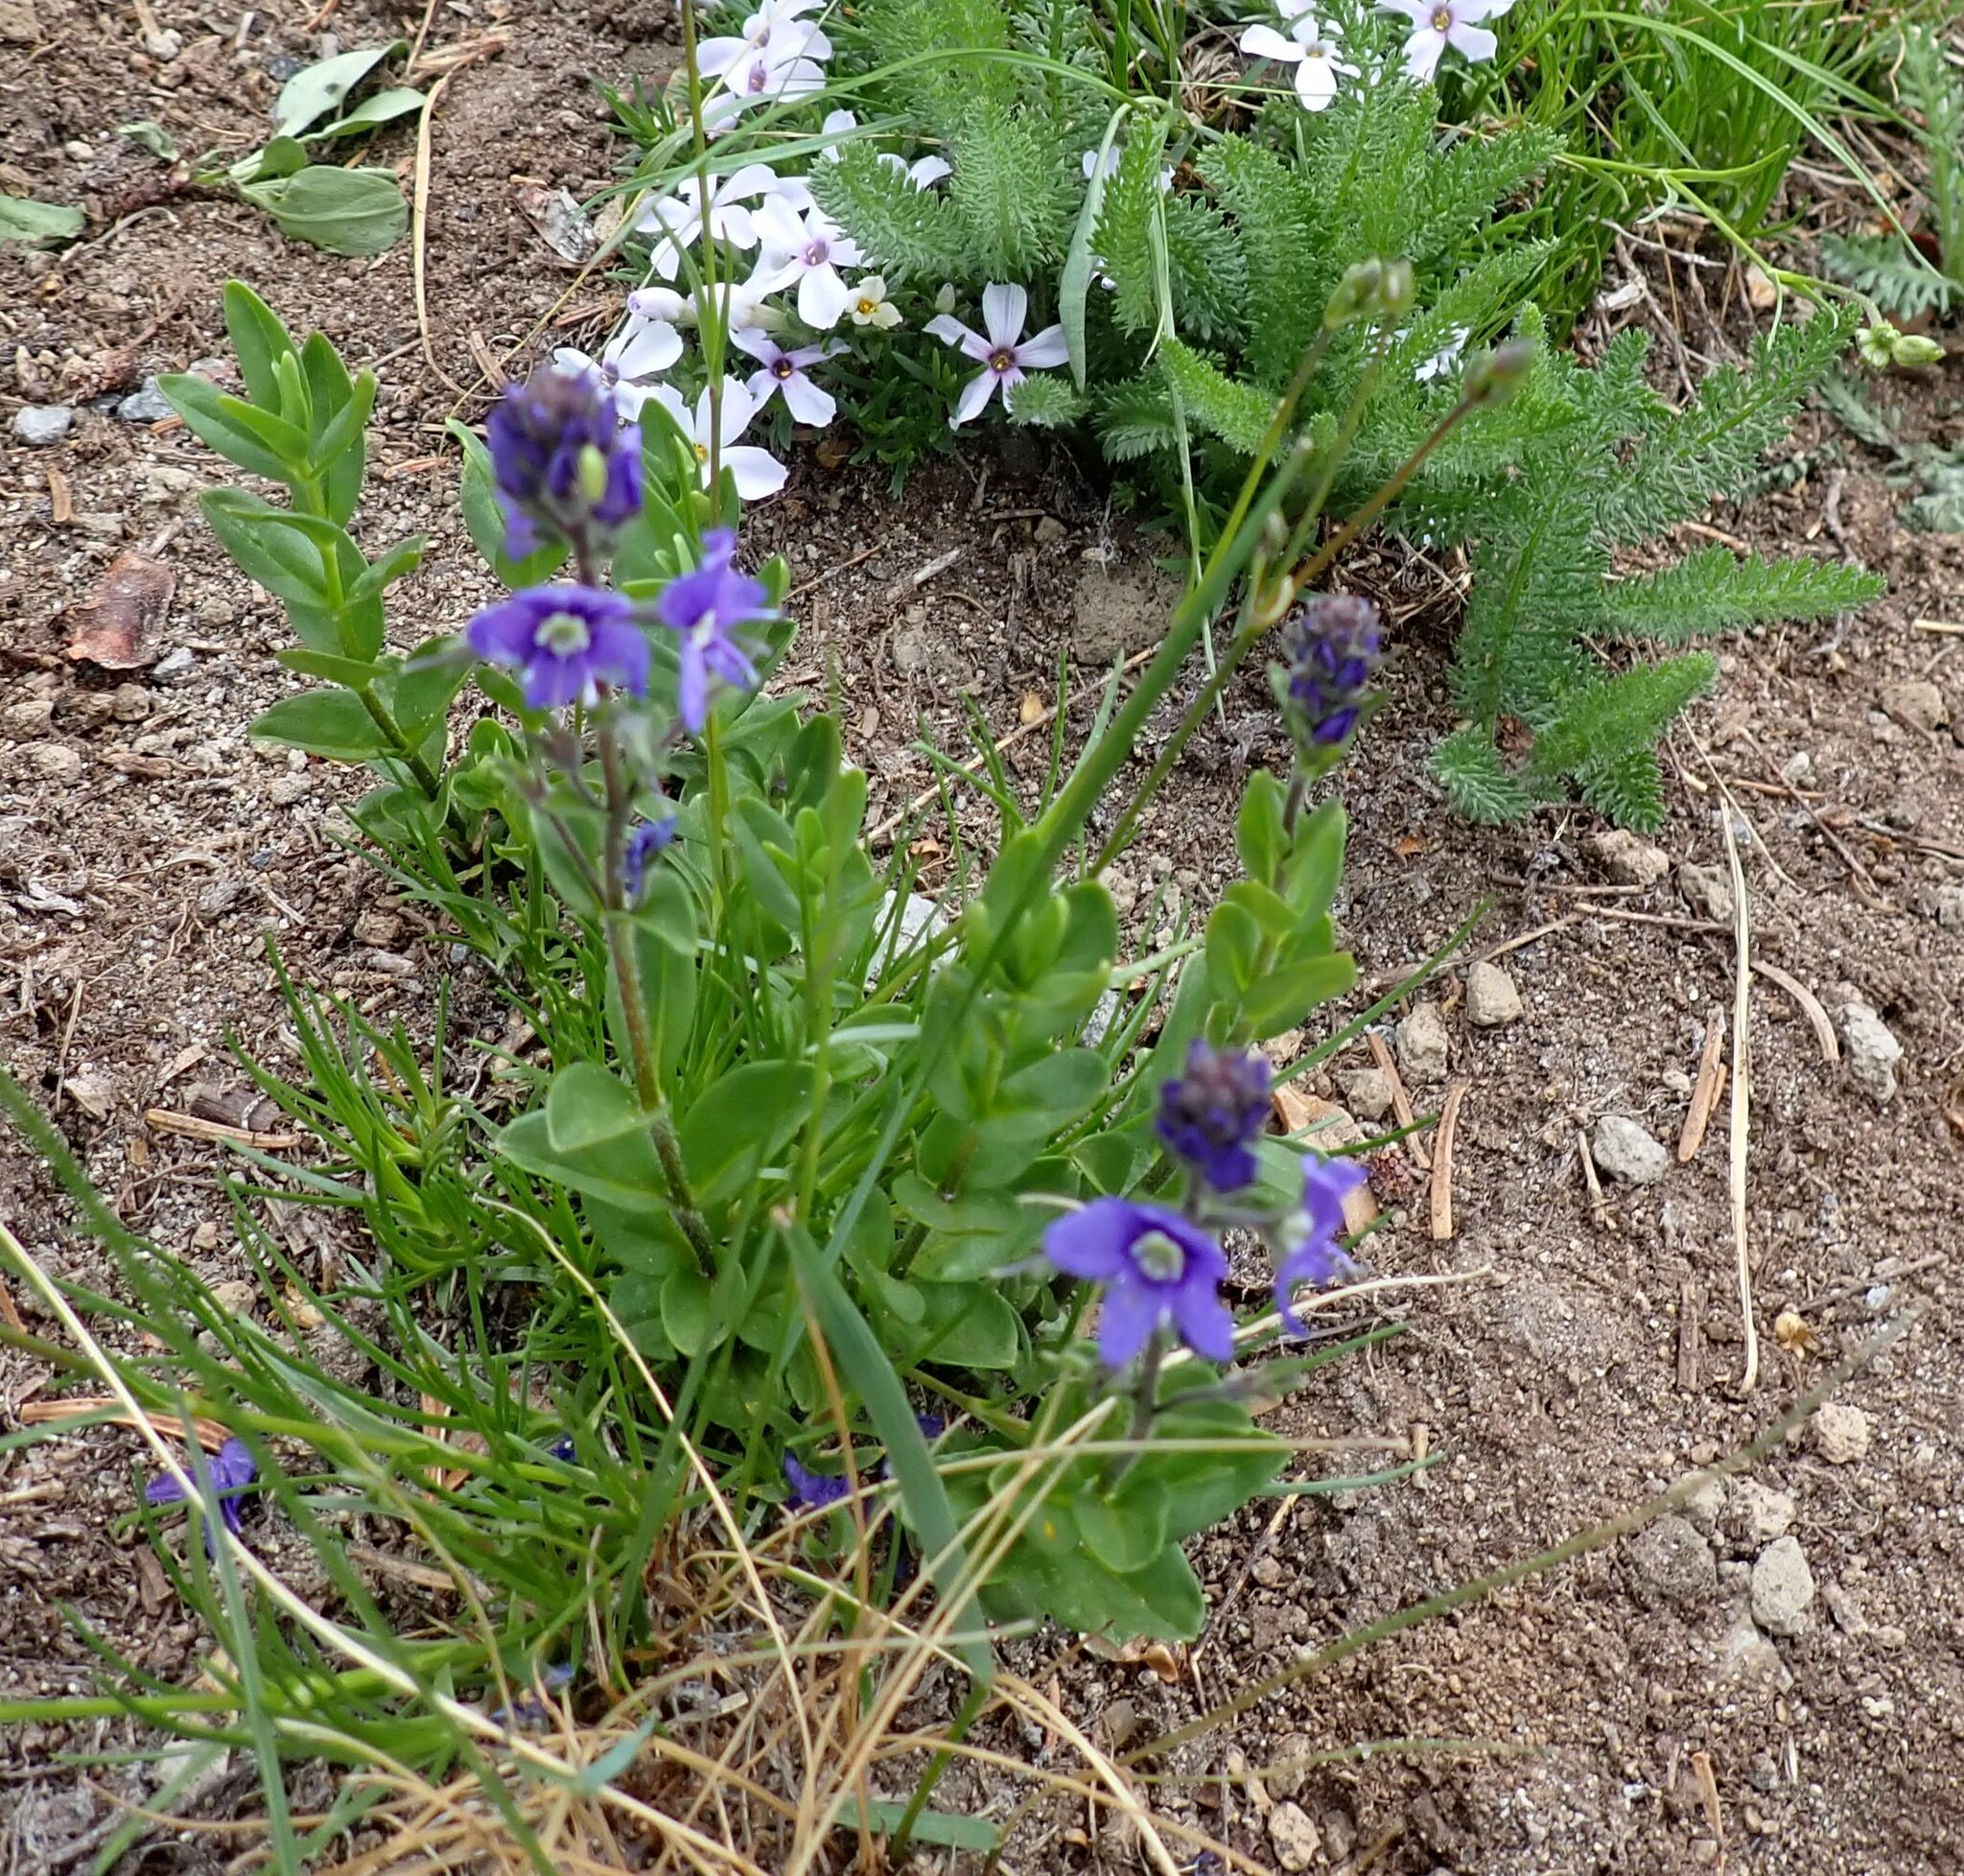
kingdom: Plantae
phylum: Tracheophyta
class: Magnoliopsida
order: Lamiales
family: Plantaginaceae
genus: Veronica
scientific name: Veronica cusickii
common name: Cusick's speedwell
